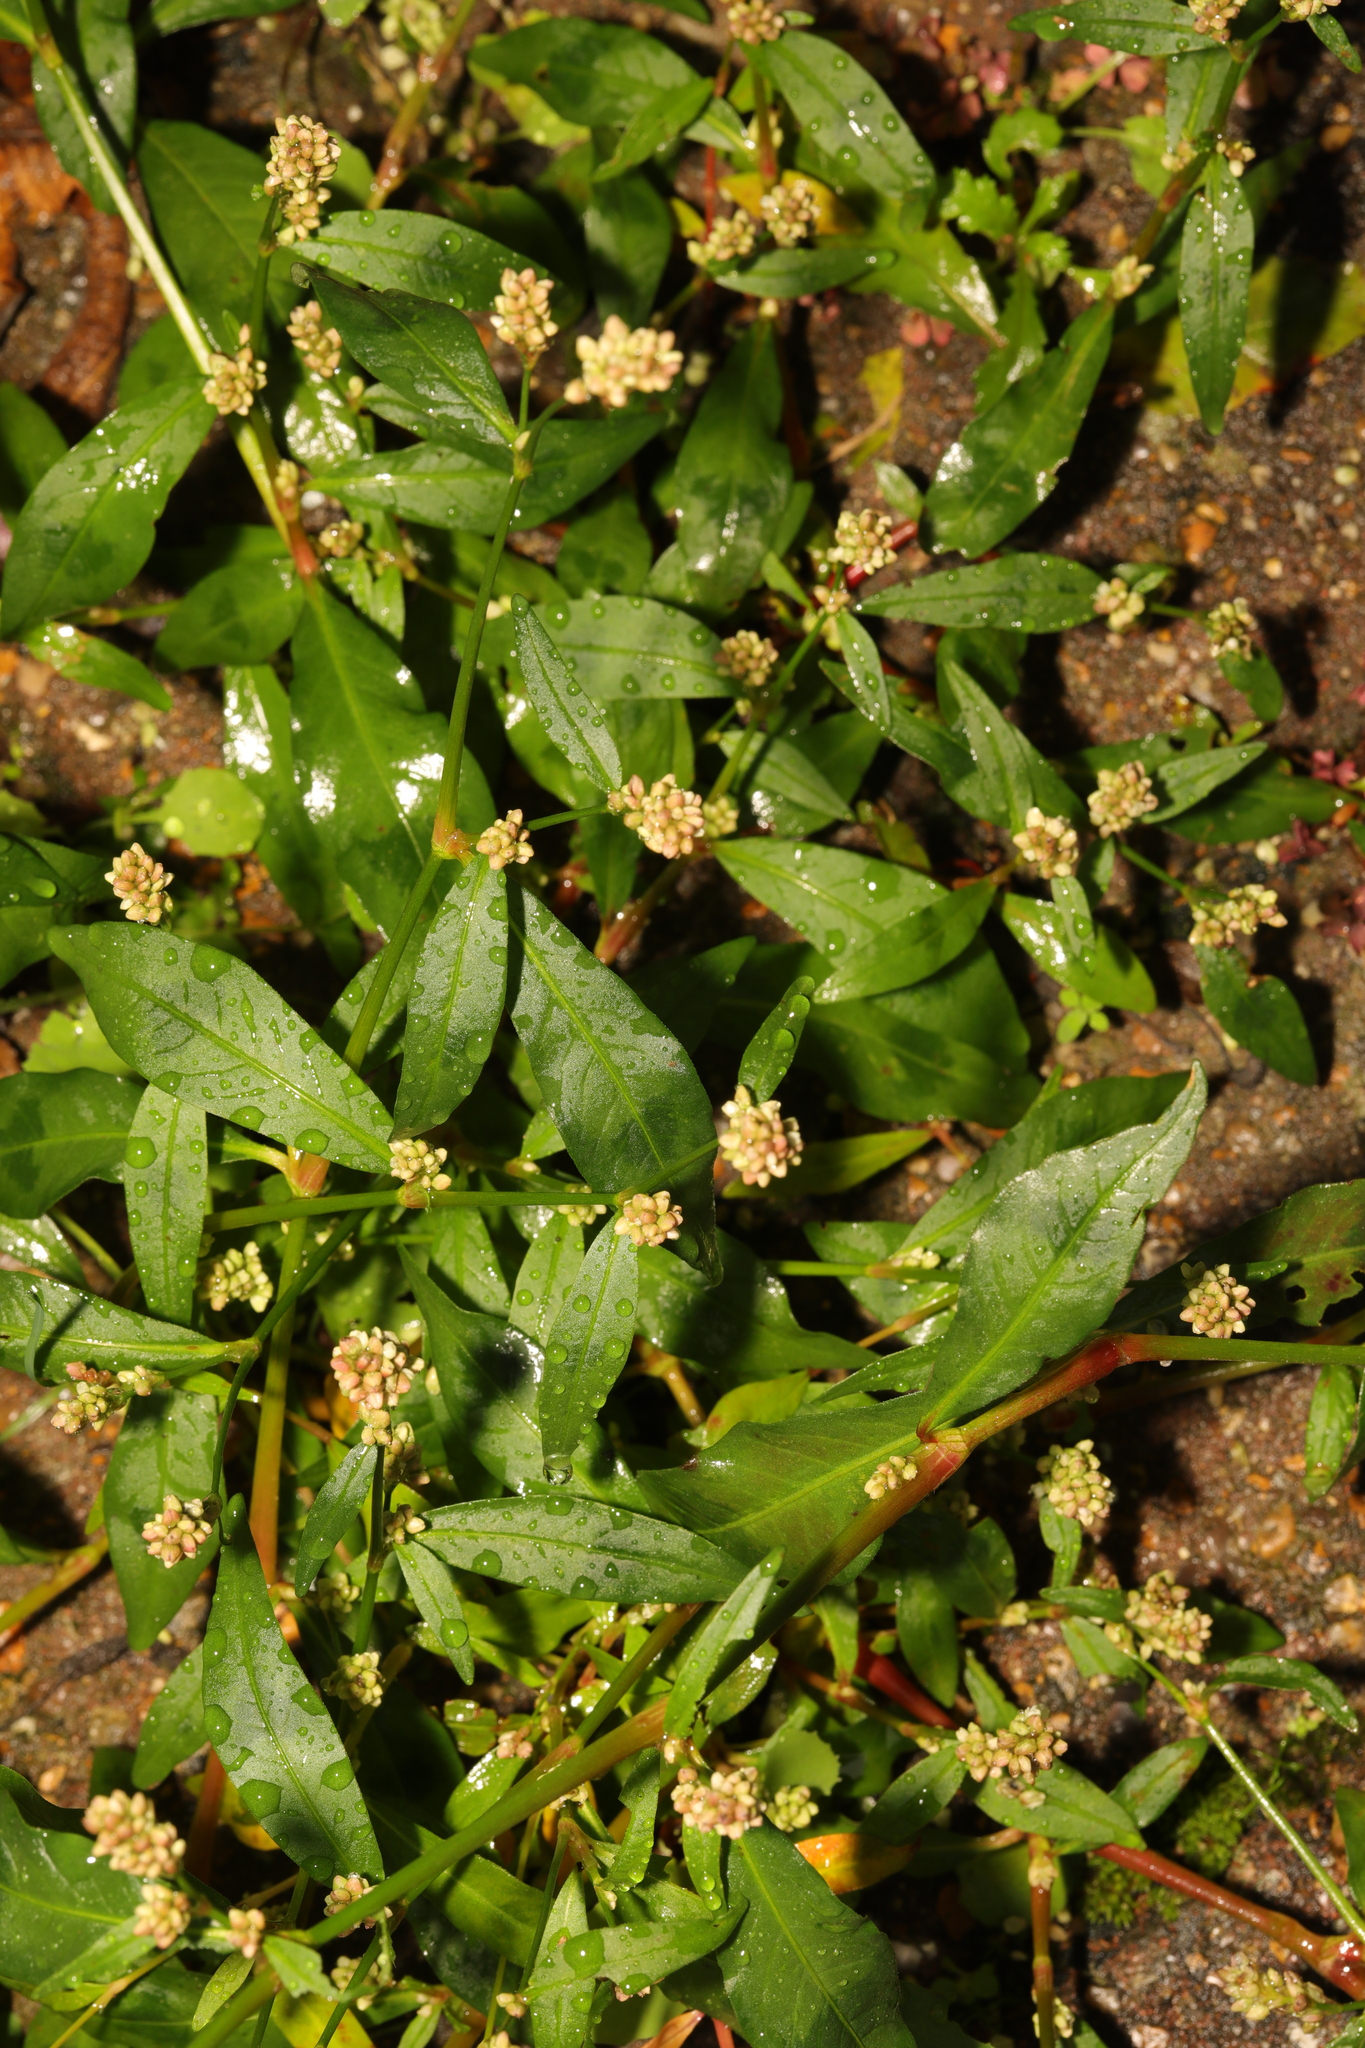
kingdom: Plantae
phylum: Tracheophyta
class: Magnoliopsida
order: Caryophyllales
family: Polygonaceae
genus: Persicaria
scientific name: Persicaria maculosa
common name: Redshank
